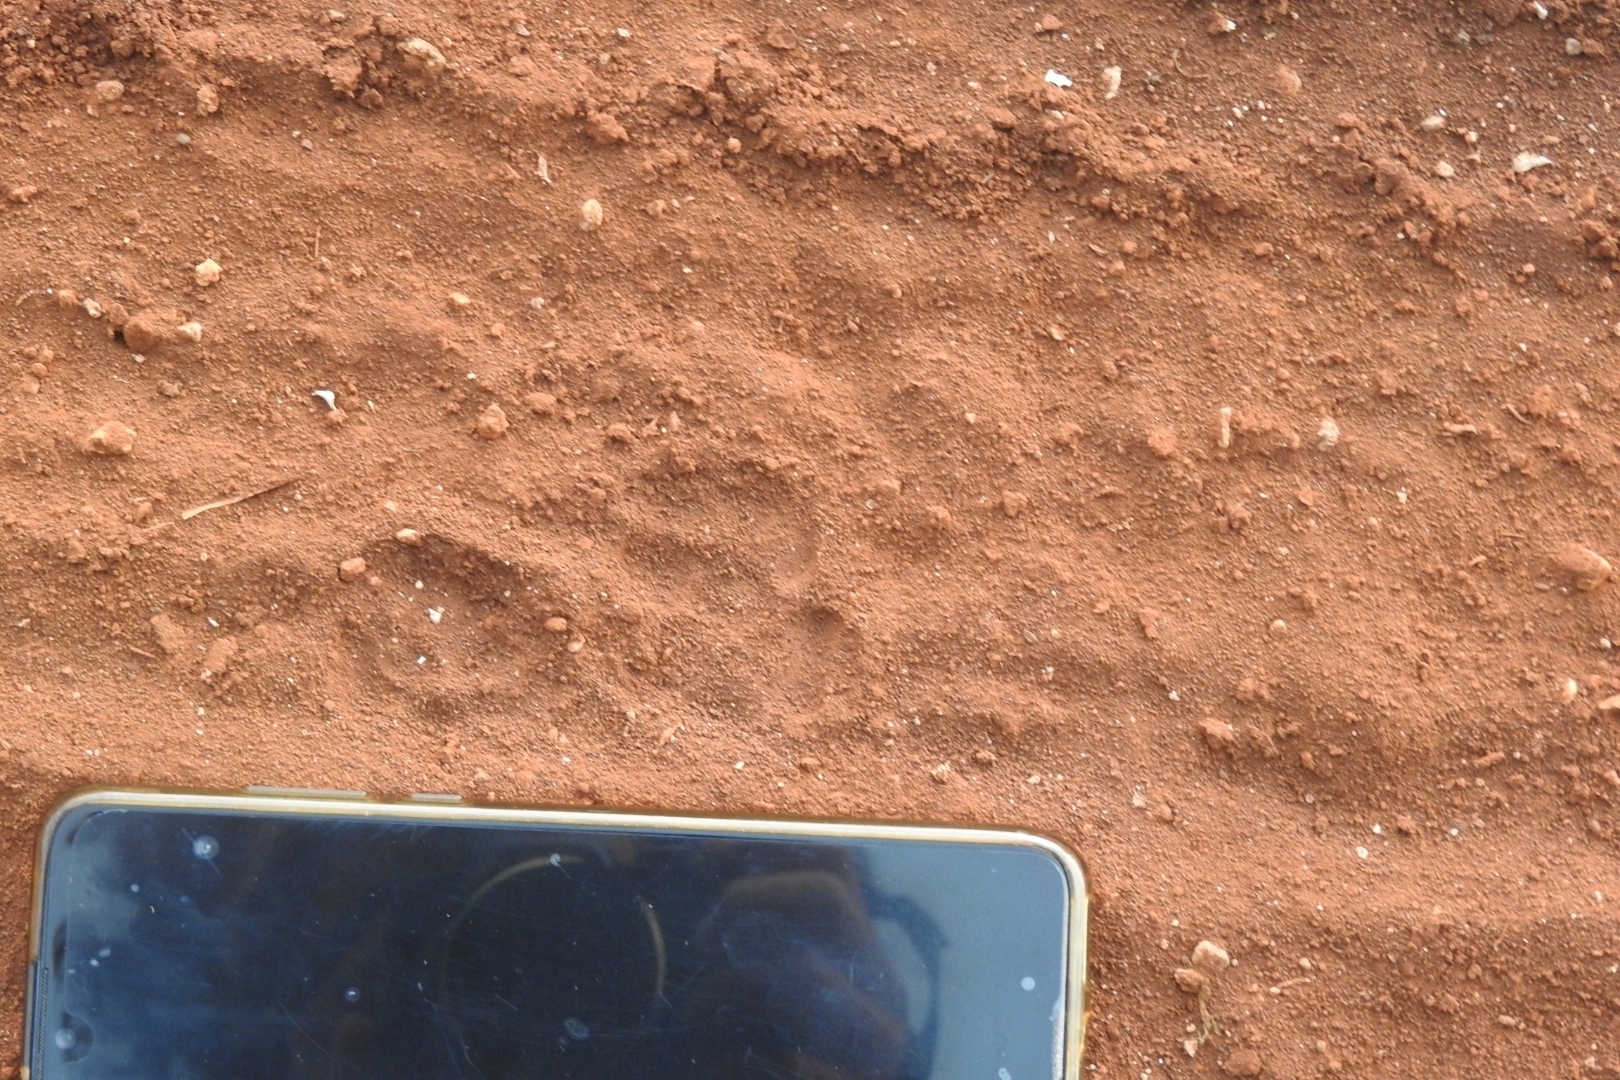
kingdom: Animalia
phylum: Chordata
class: Mammalia
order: Carnivora
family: Canidae
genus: Urocyon
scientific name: Urocyon cinereoargenteus
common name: Gray fox
